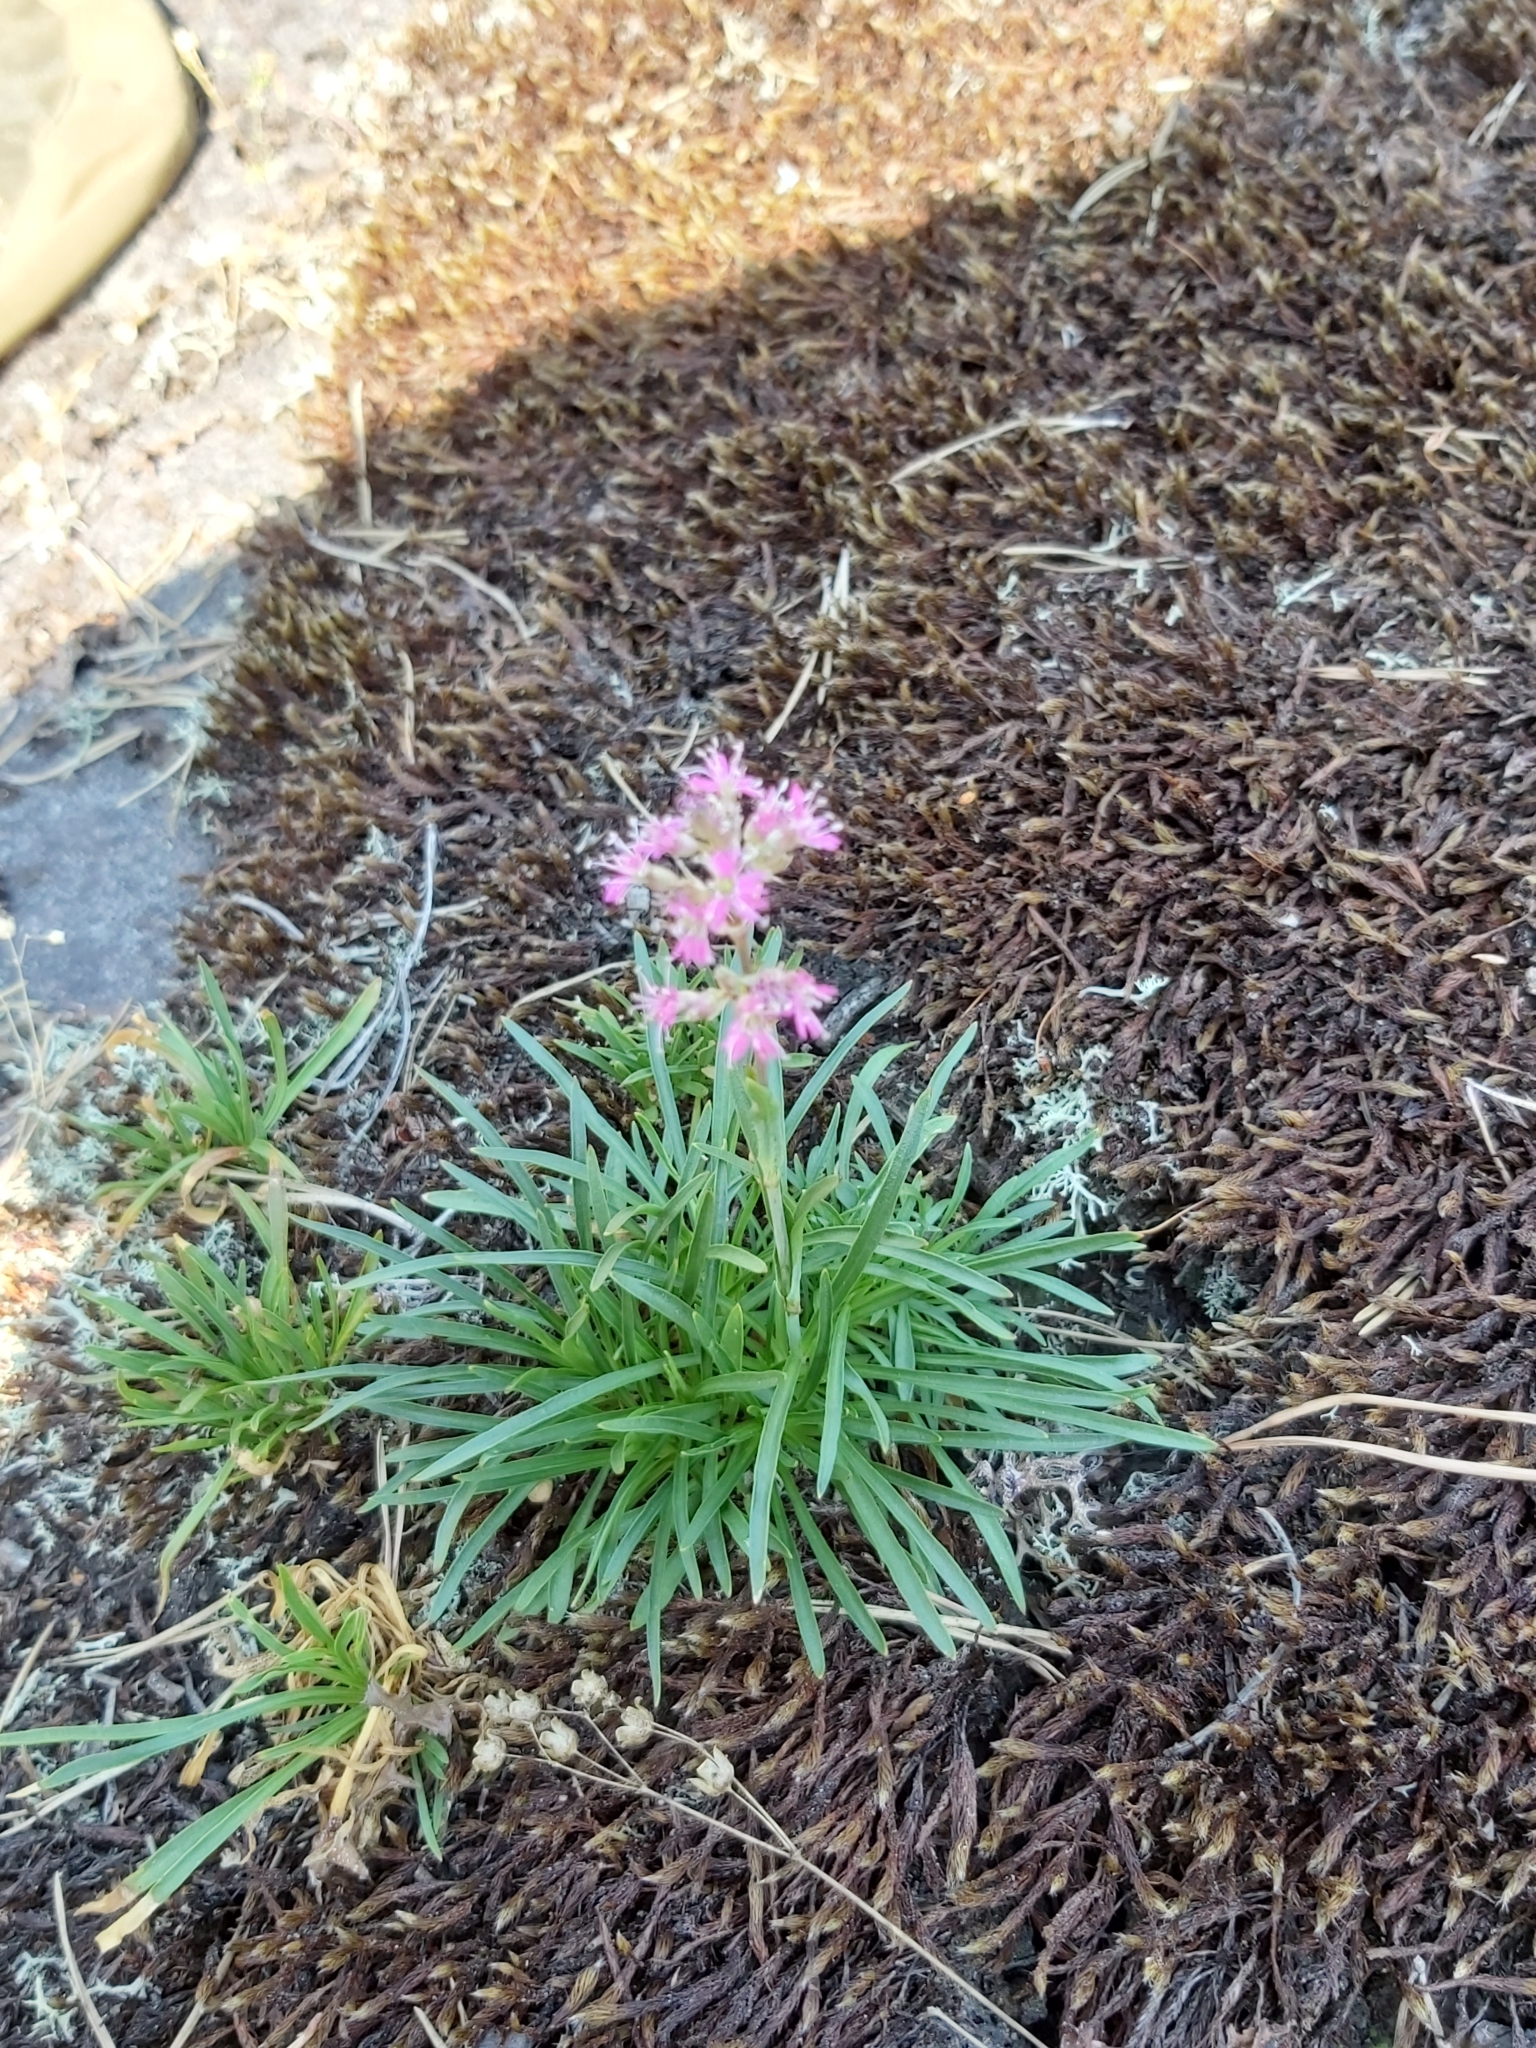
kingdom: Plantae
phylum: Tracheophyta
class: Magnoliopsida
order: Caryophyllales
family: Caryophyllaceae
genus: Viscaria
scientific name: Viscaria alpina
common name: Alpine campion
